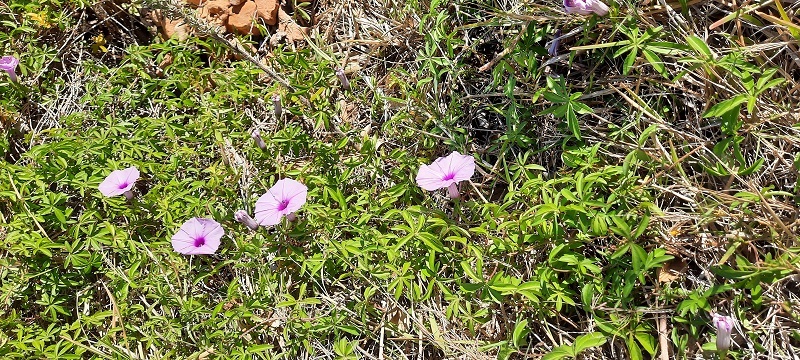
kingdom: Plantae
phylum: Tracheophyta
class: Magnoliopsida
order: Solanales
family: Convolvulaceae
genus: Ipomoea
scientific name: Ipomoea cairica
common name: Mile a minute vine
